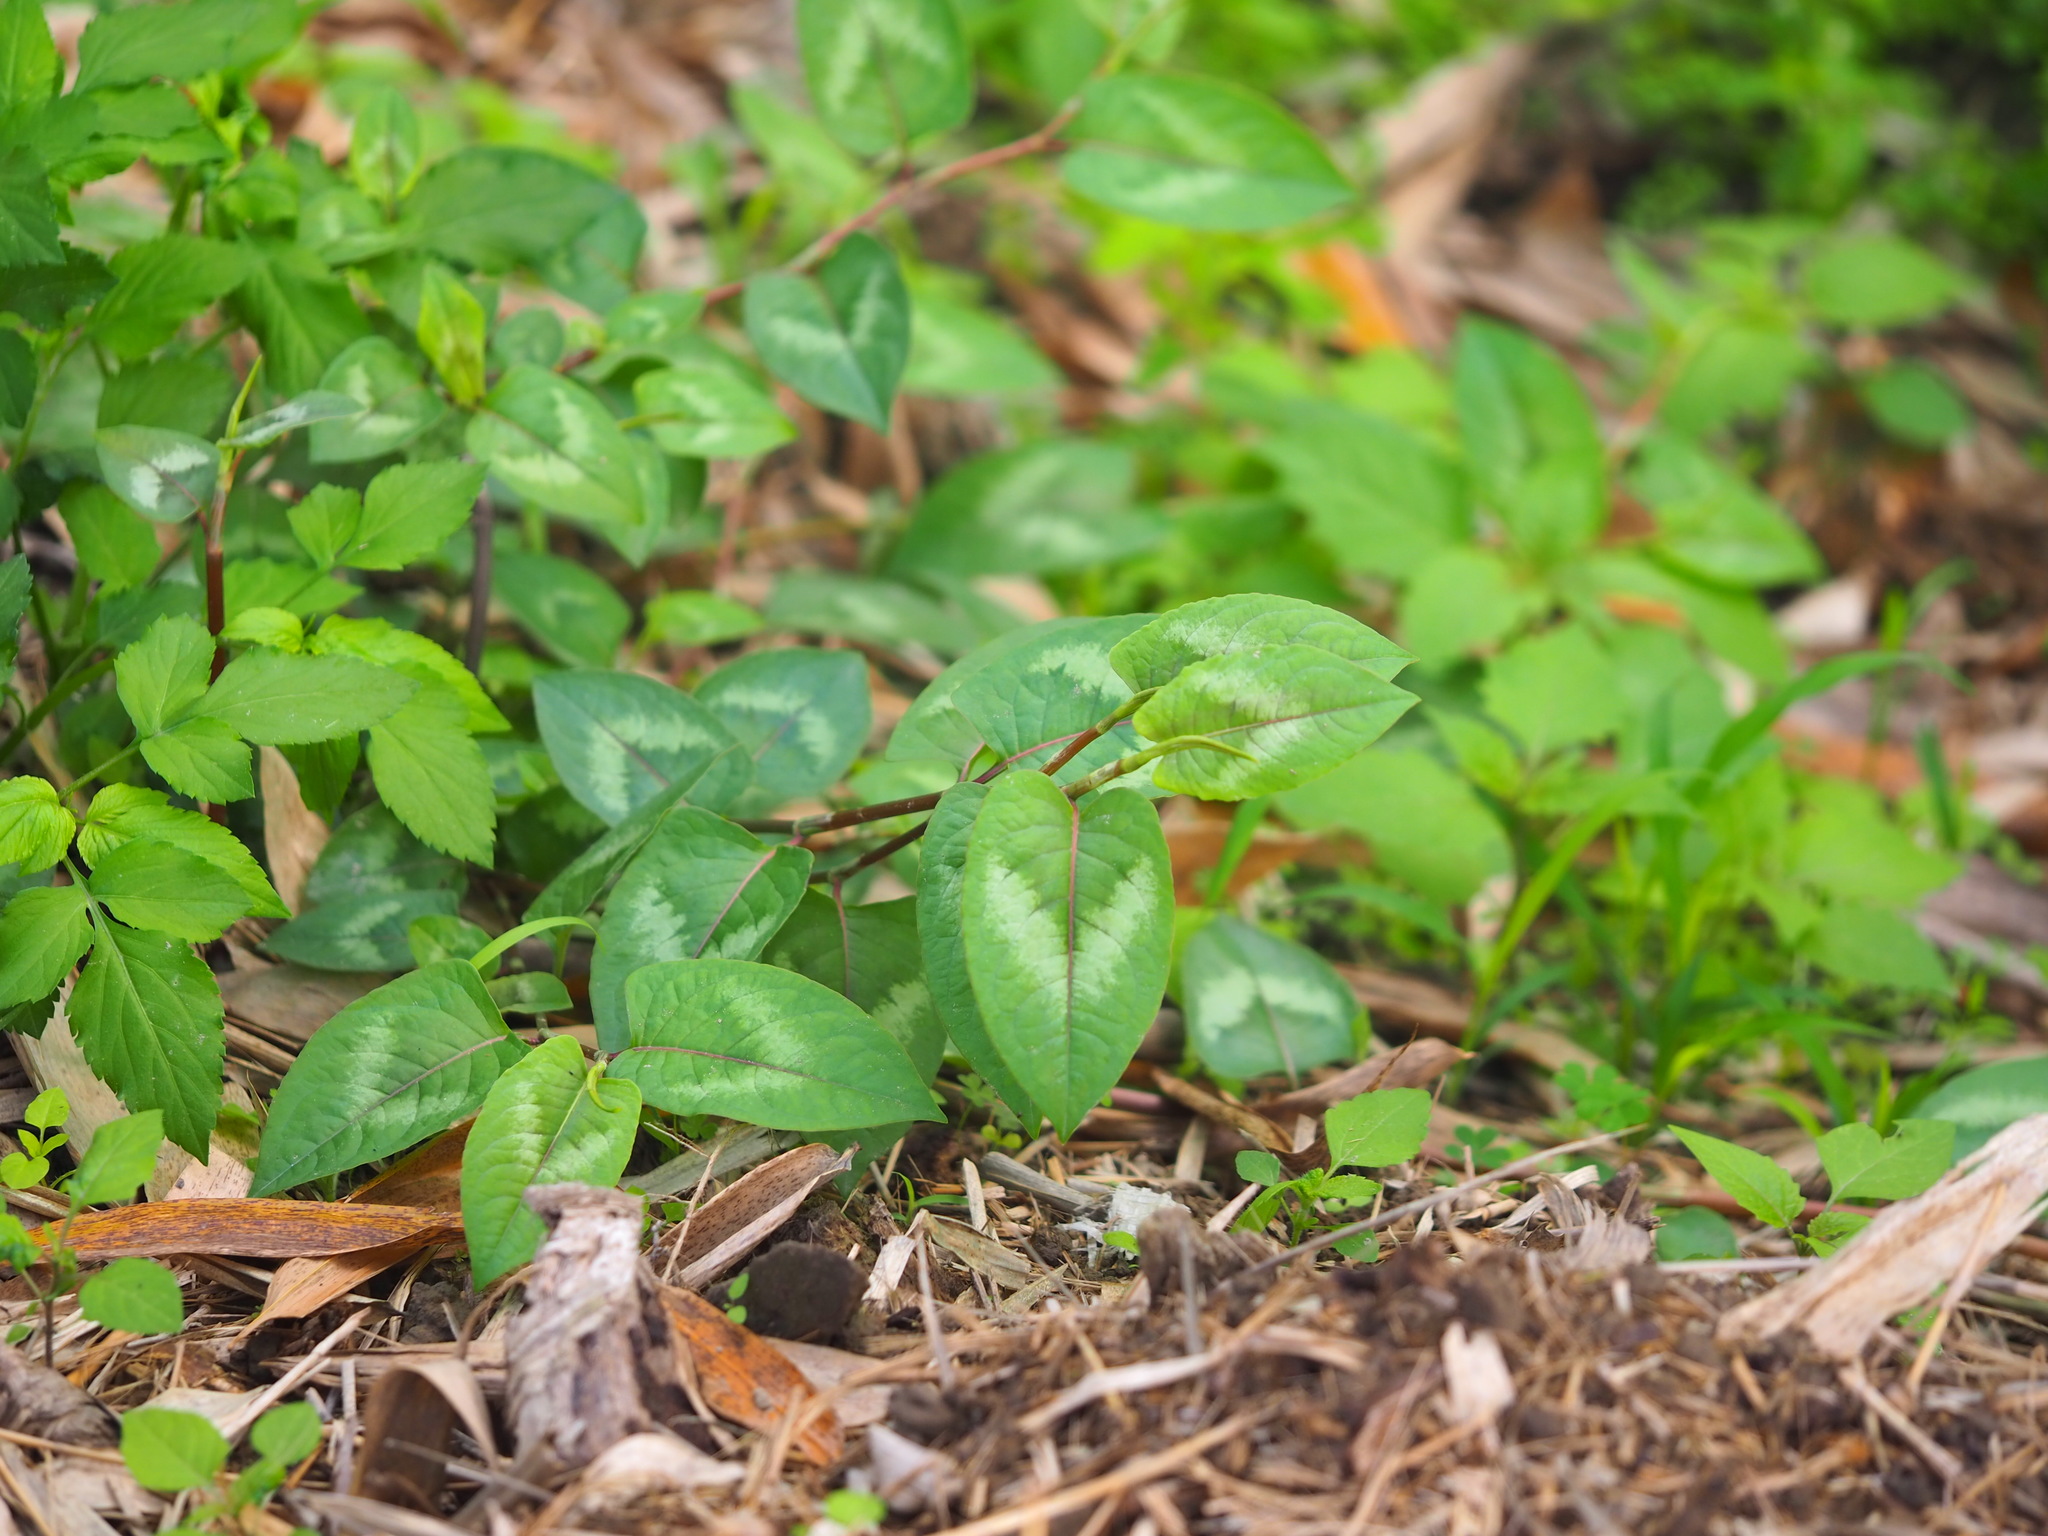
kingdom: Plantae
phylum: Tracheophyta
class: Magnoliopsida
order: Caryophyllales
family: Polygonaceae
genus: Persicaria
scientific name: Persicaria chinensis
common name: Chinese knotweed
